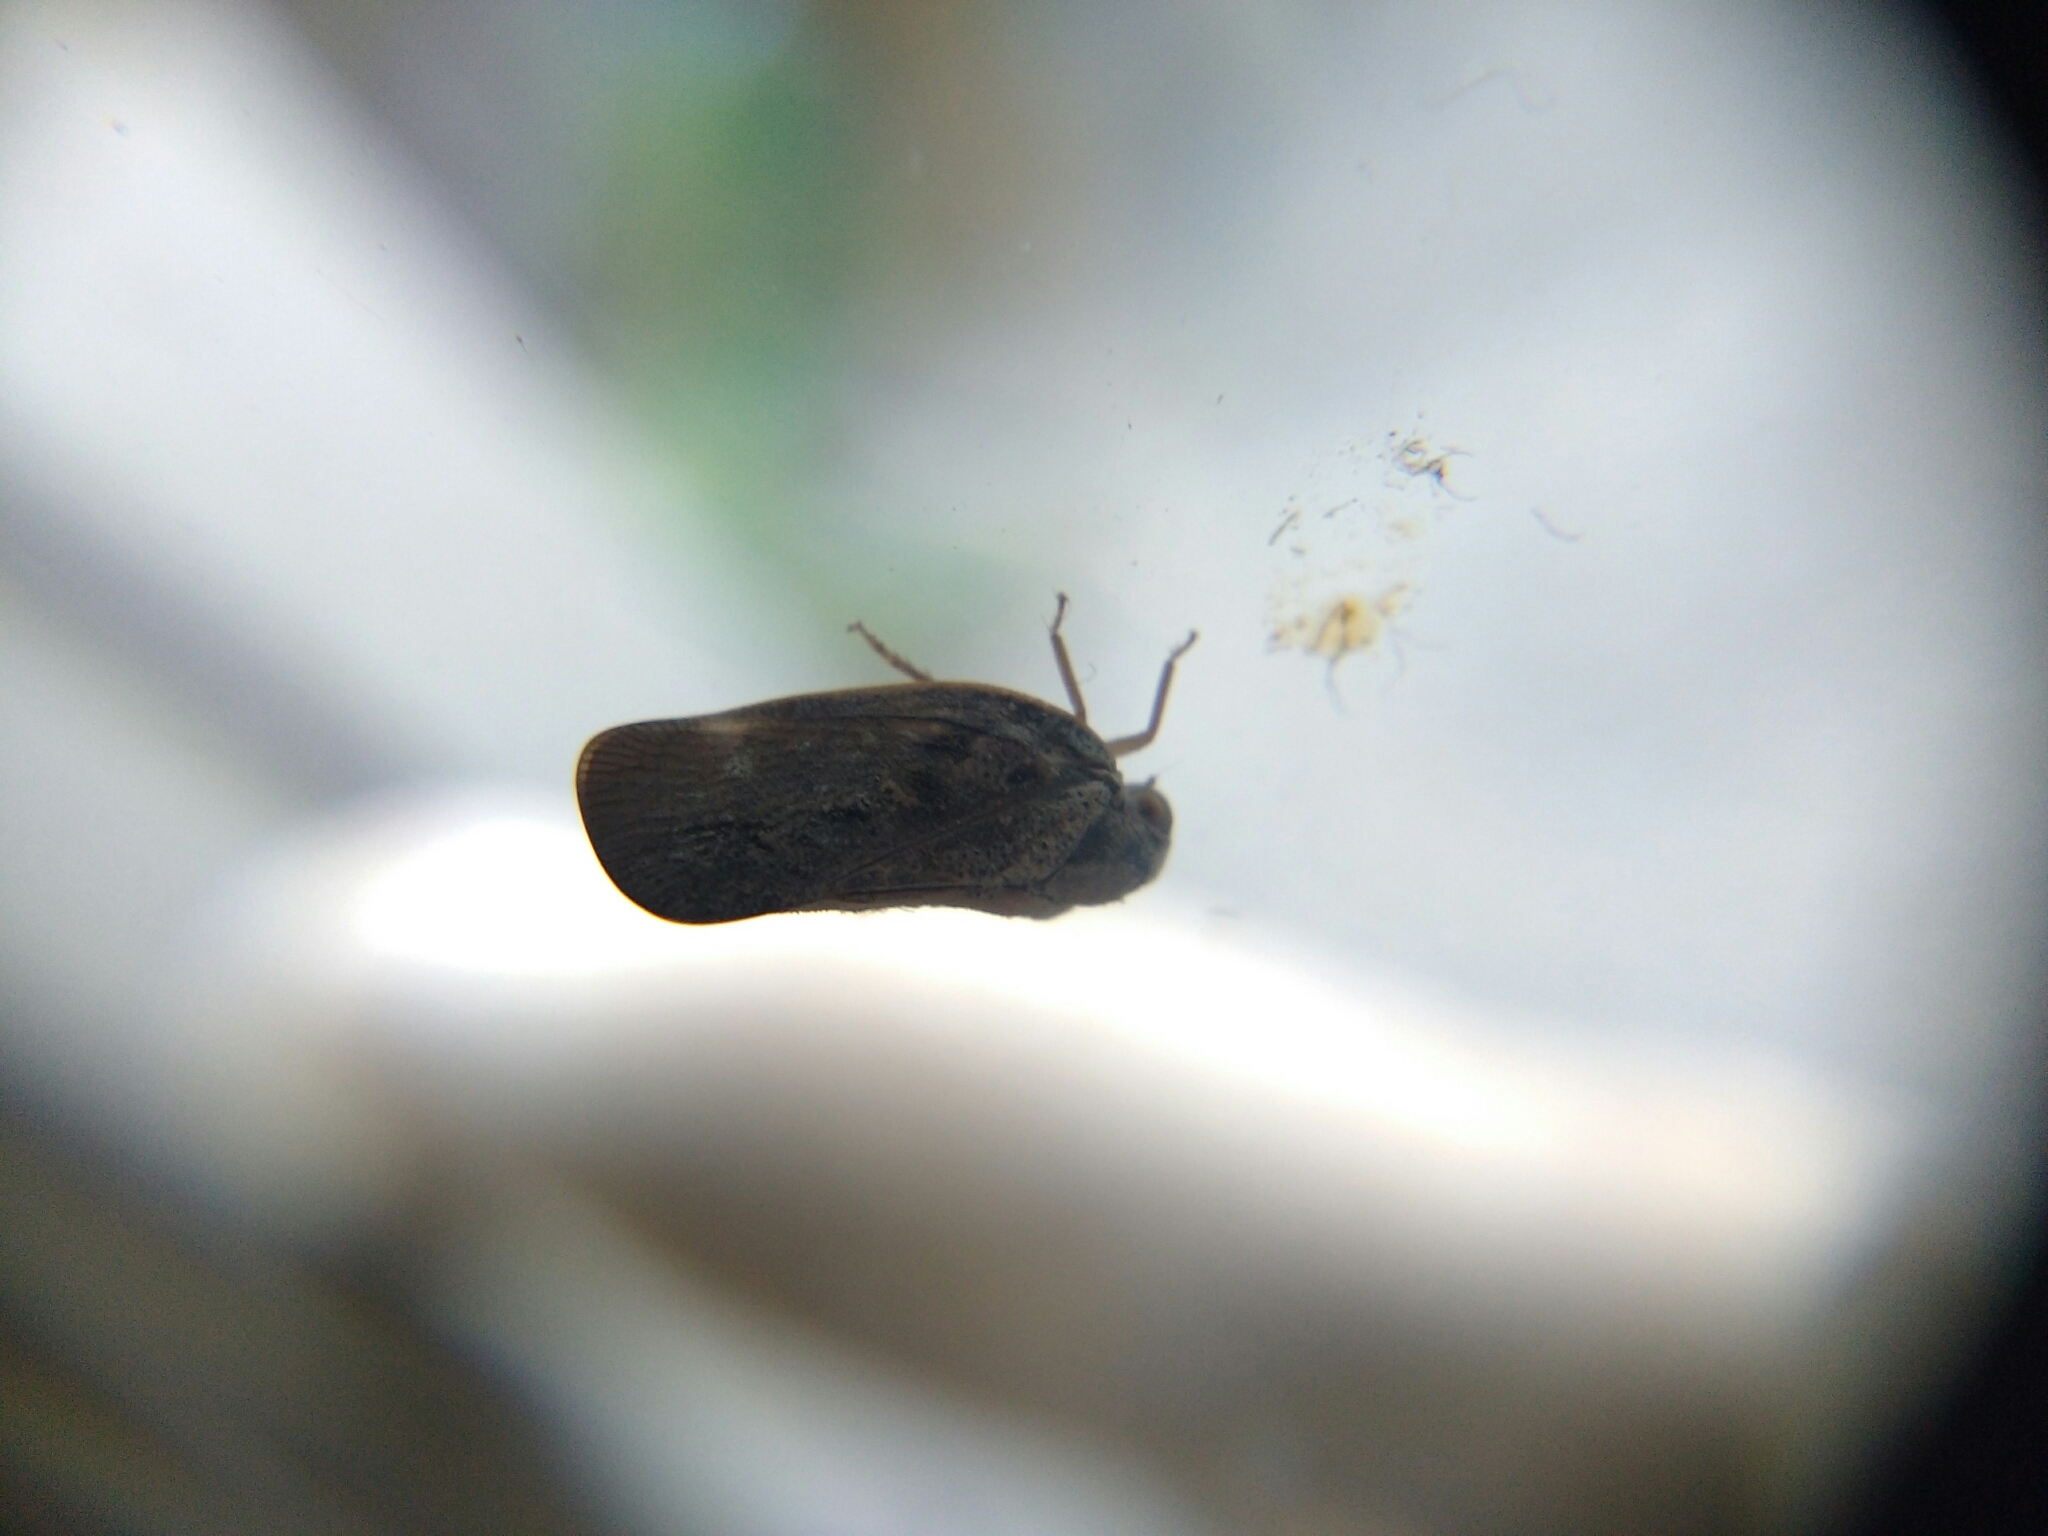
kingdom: Animalia
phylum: Arthropoda
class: Insecta
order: Hemiptera
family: Flatidae
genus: Metcalfa
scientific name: Metcalfa pruinosa
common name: Citrus flatid planthopper
